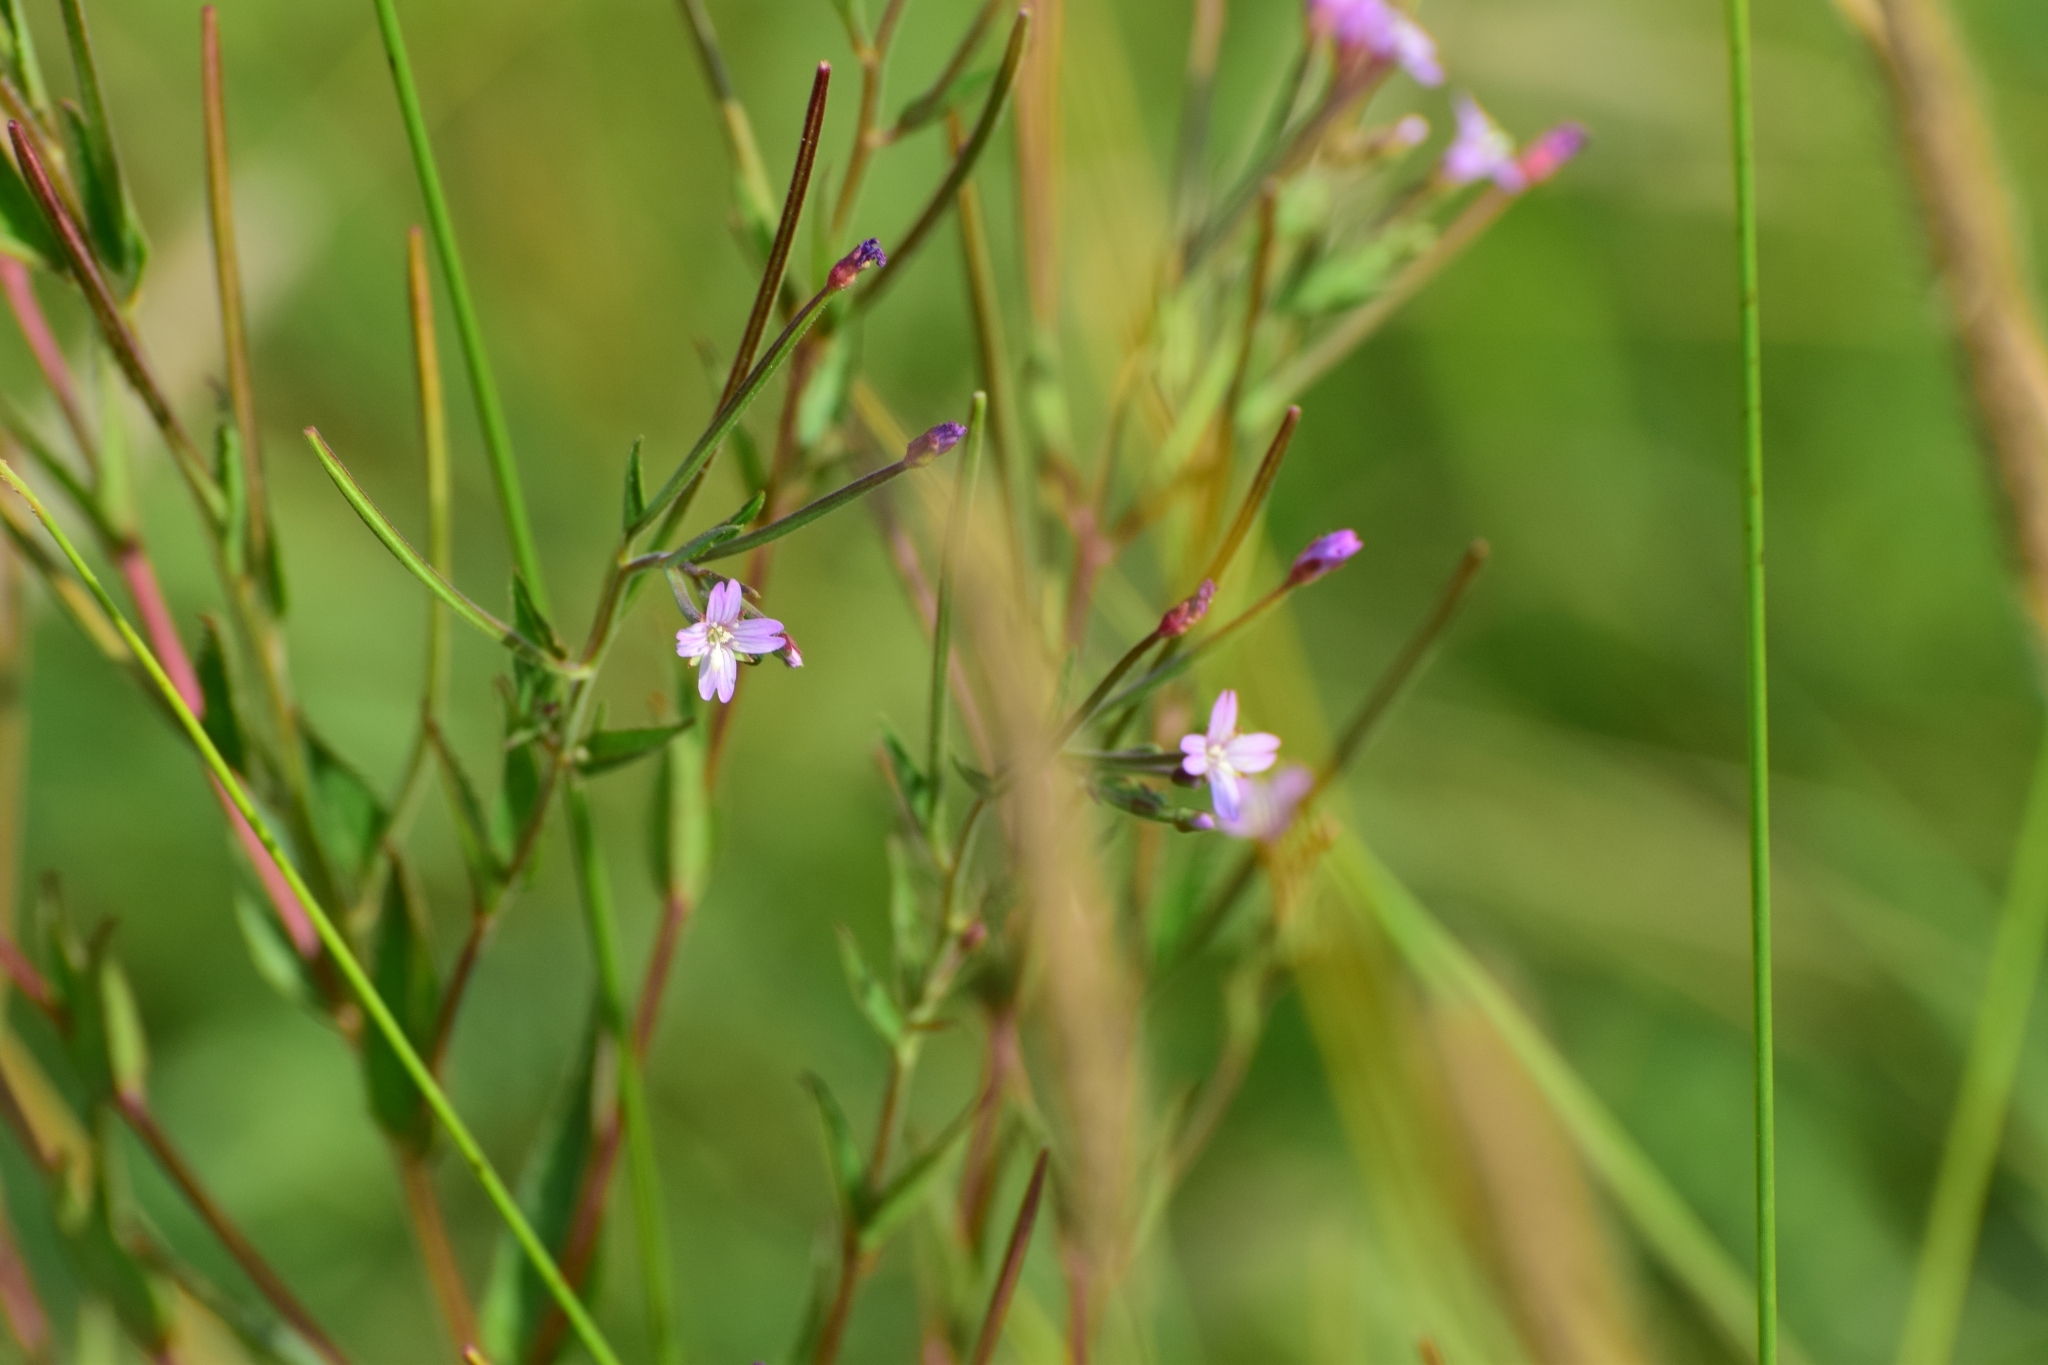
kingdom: Plantae
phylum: Tracheophyta
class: Magnoliopsida
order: Myrtales
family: Onagraceae
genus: Epilobium
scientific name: Epilobium ciliatum
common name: American willowherb
